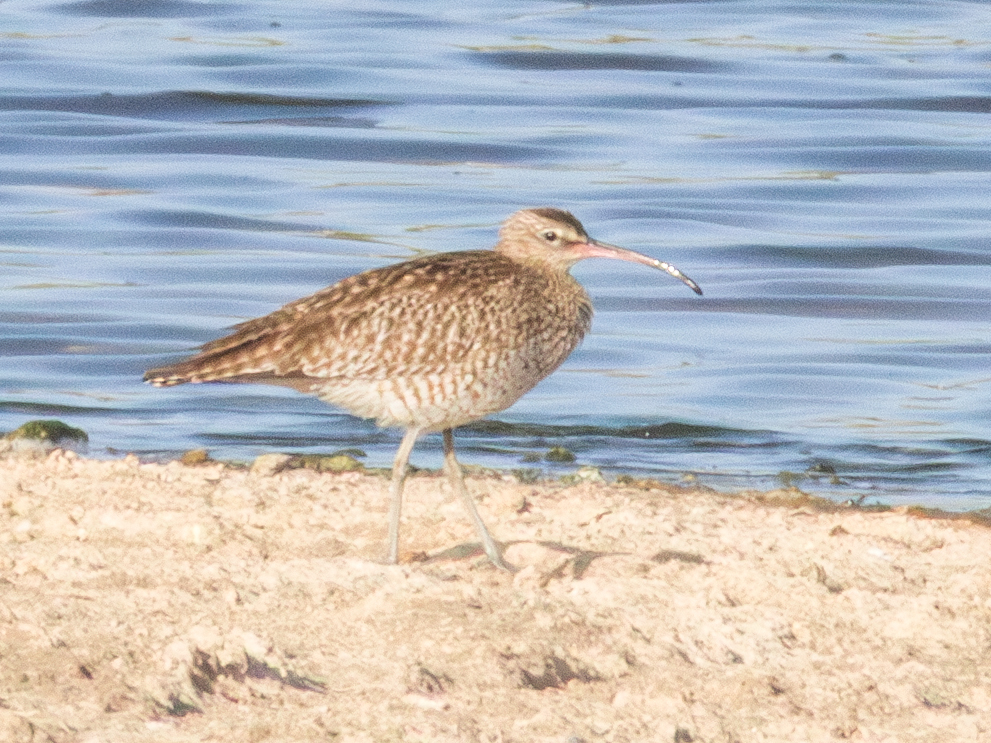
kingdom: Animalia
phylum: Chordata
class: Aves
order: Charadriiformes
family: Scolopacidae
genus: Numenius
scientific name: Numenius phaeopus
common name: Whimbrel
